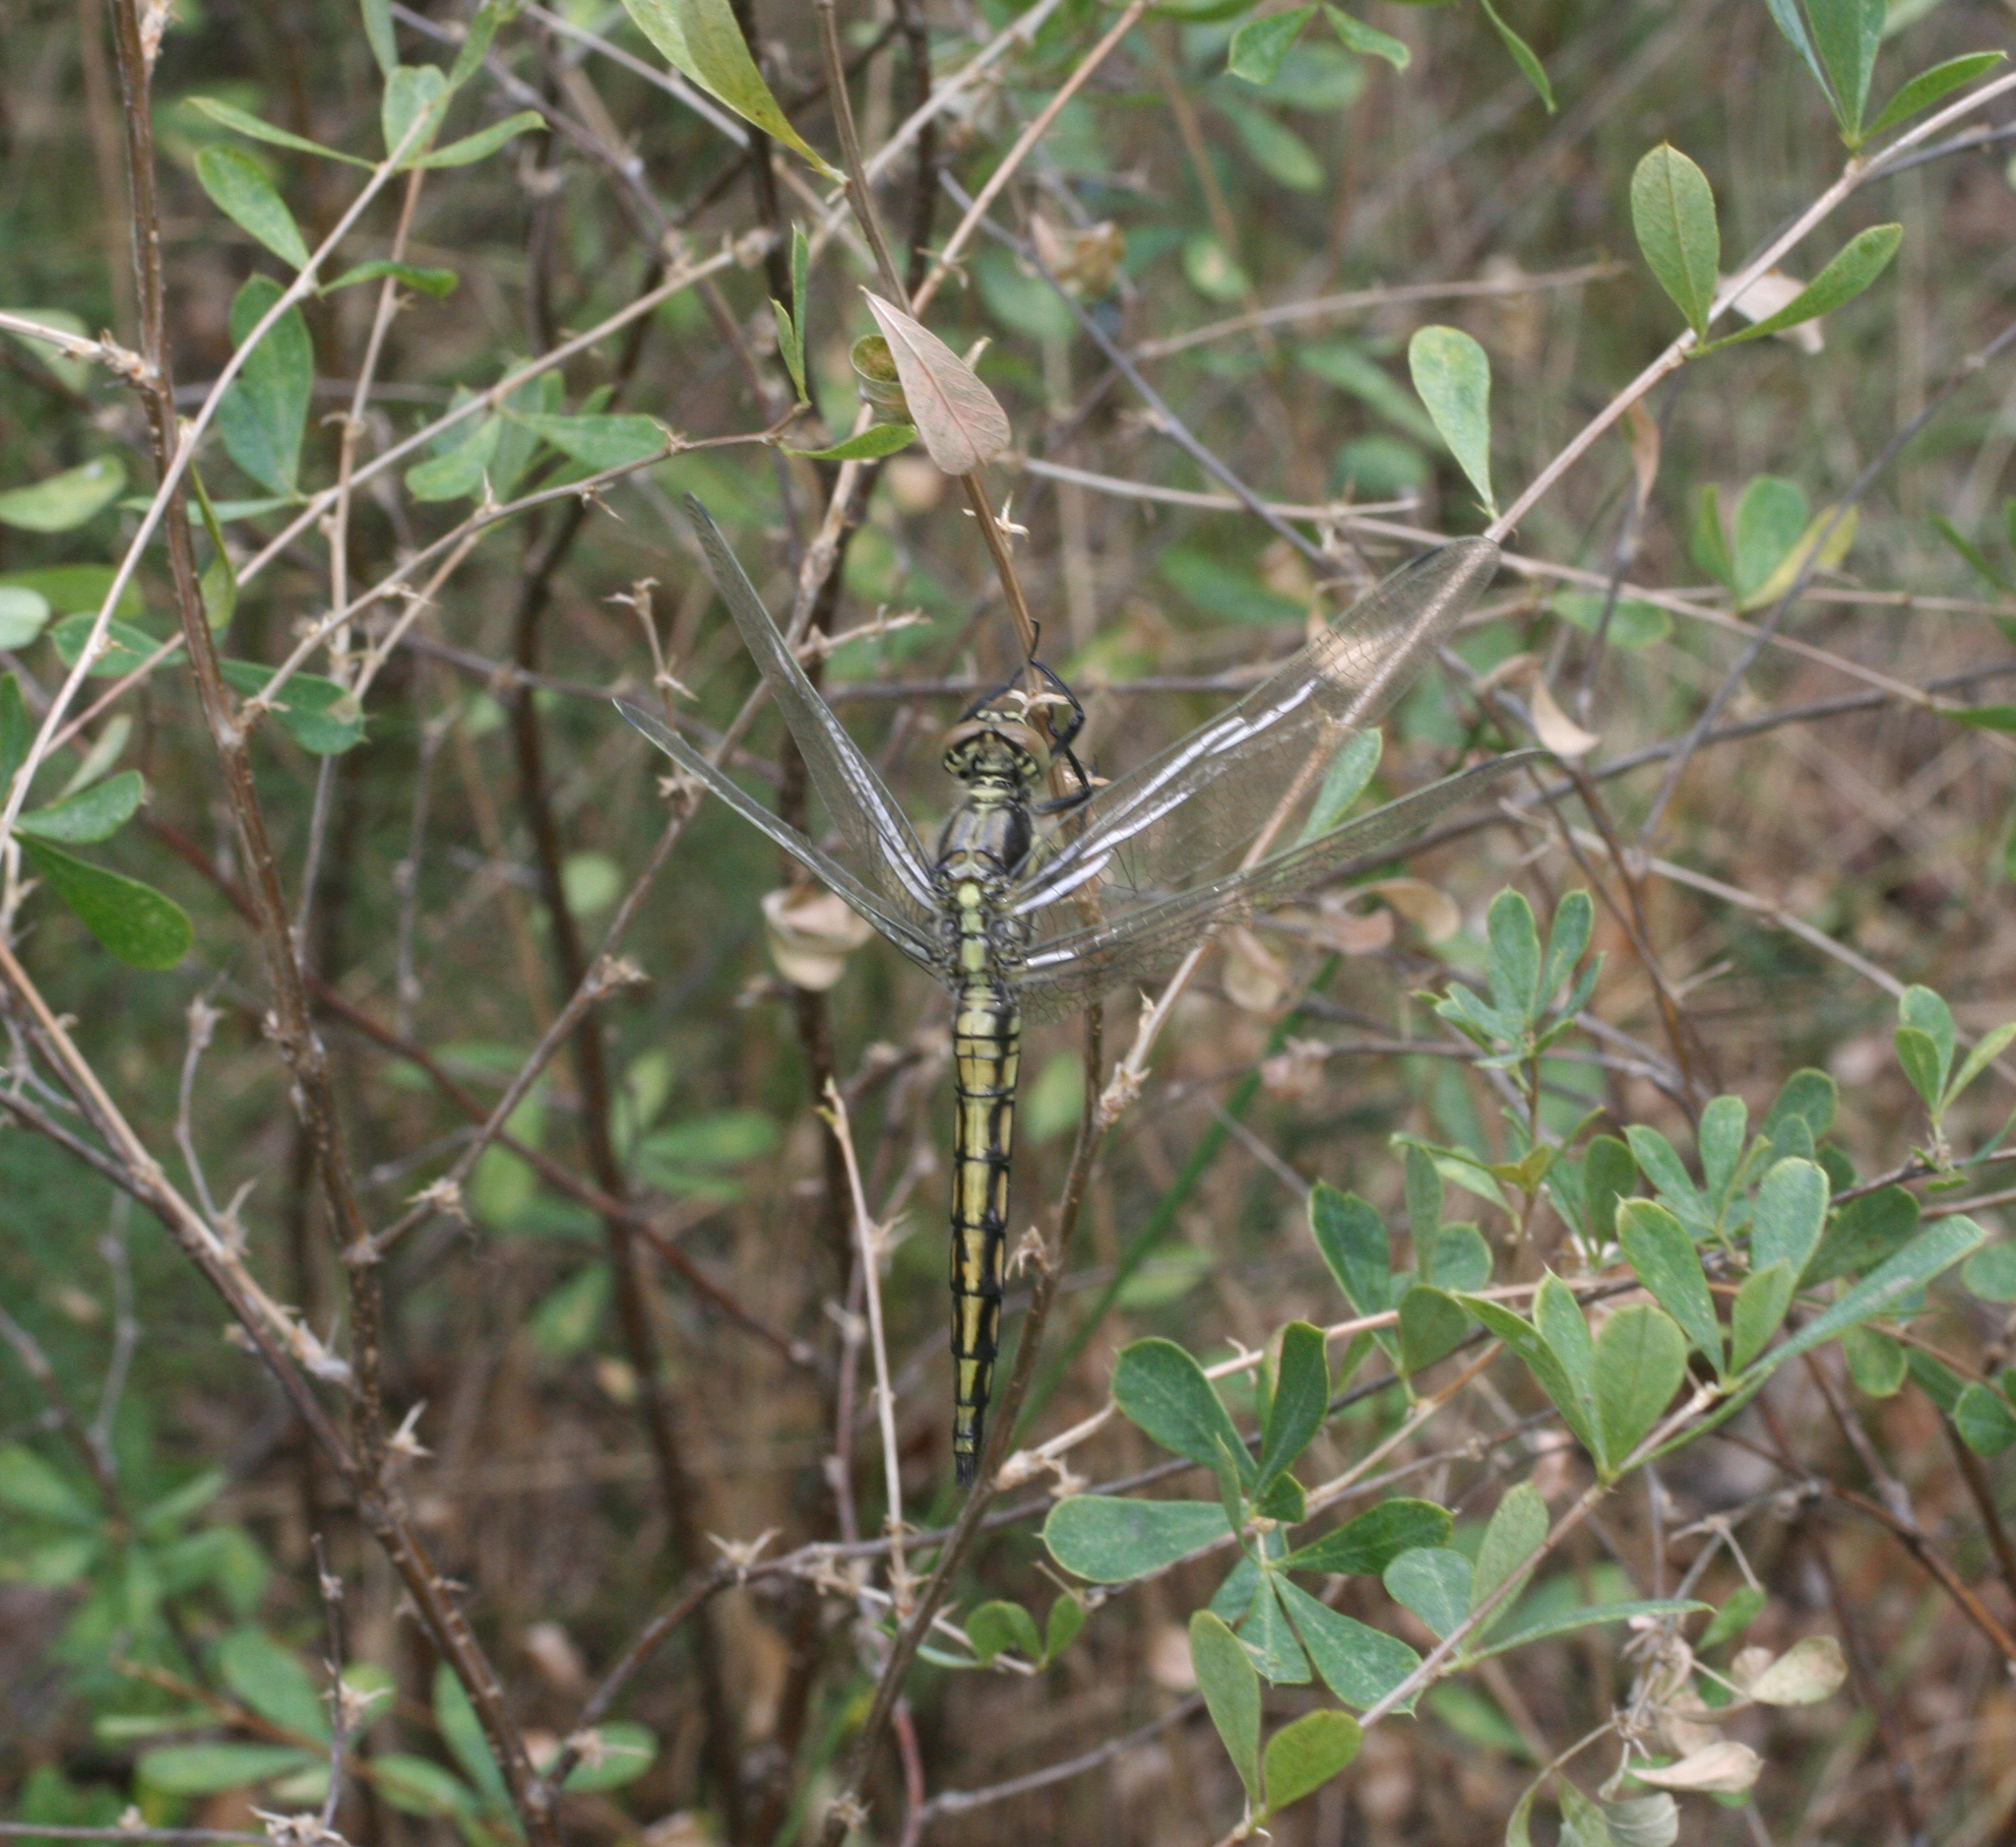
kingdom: Animalia
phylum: Arthropoda
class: Insecta
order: Odonata
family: Libellulidae
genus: Orthetrum
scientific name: Orthetrum cancellatum
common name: Black-tailed skimmer
